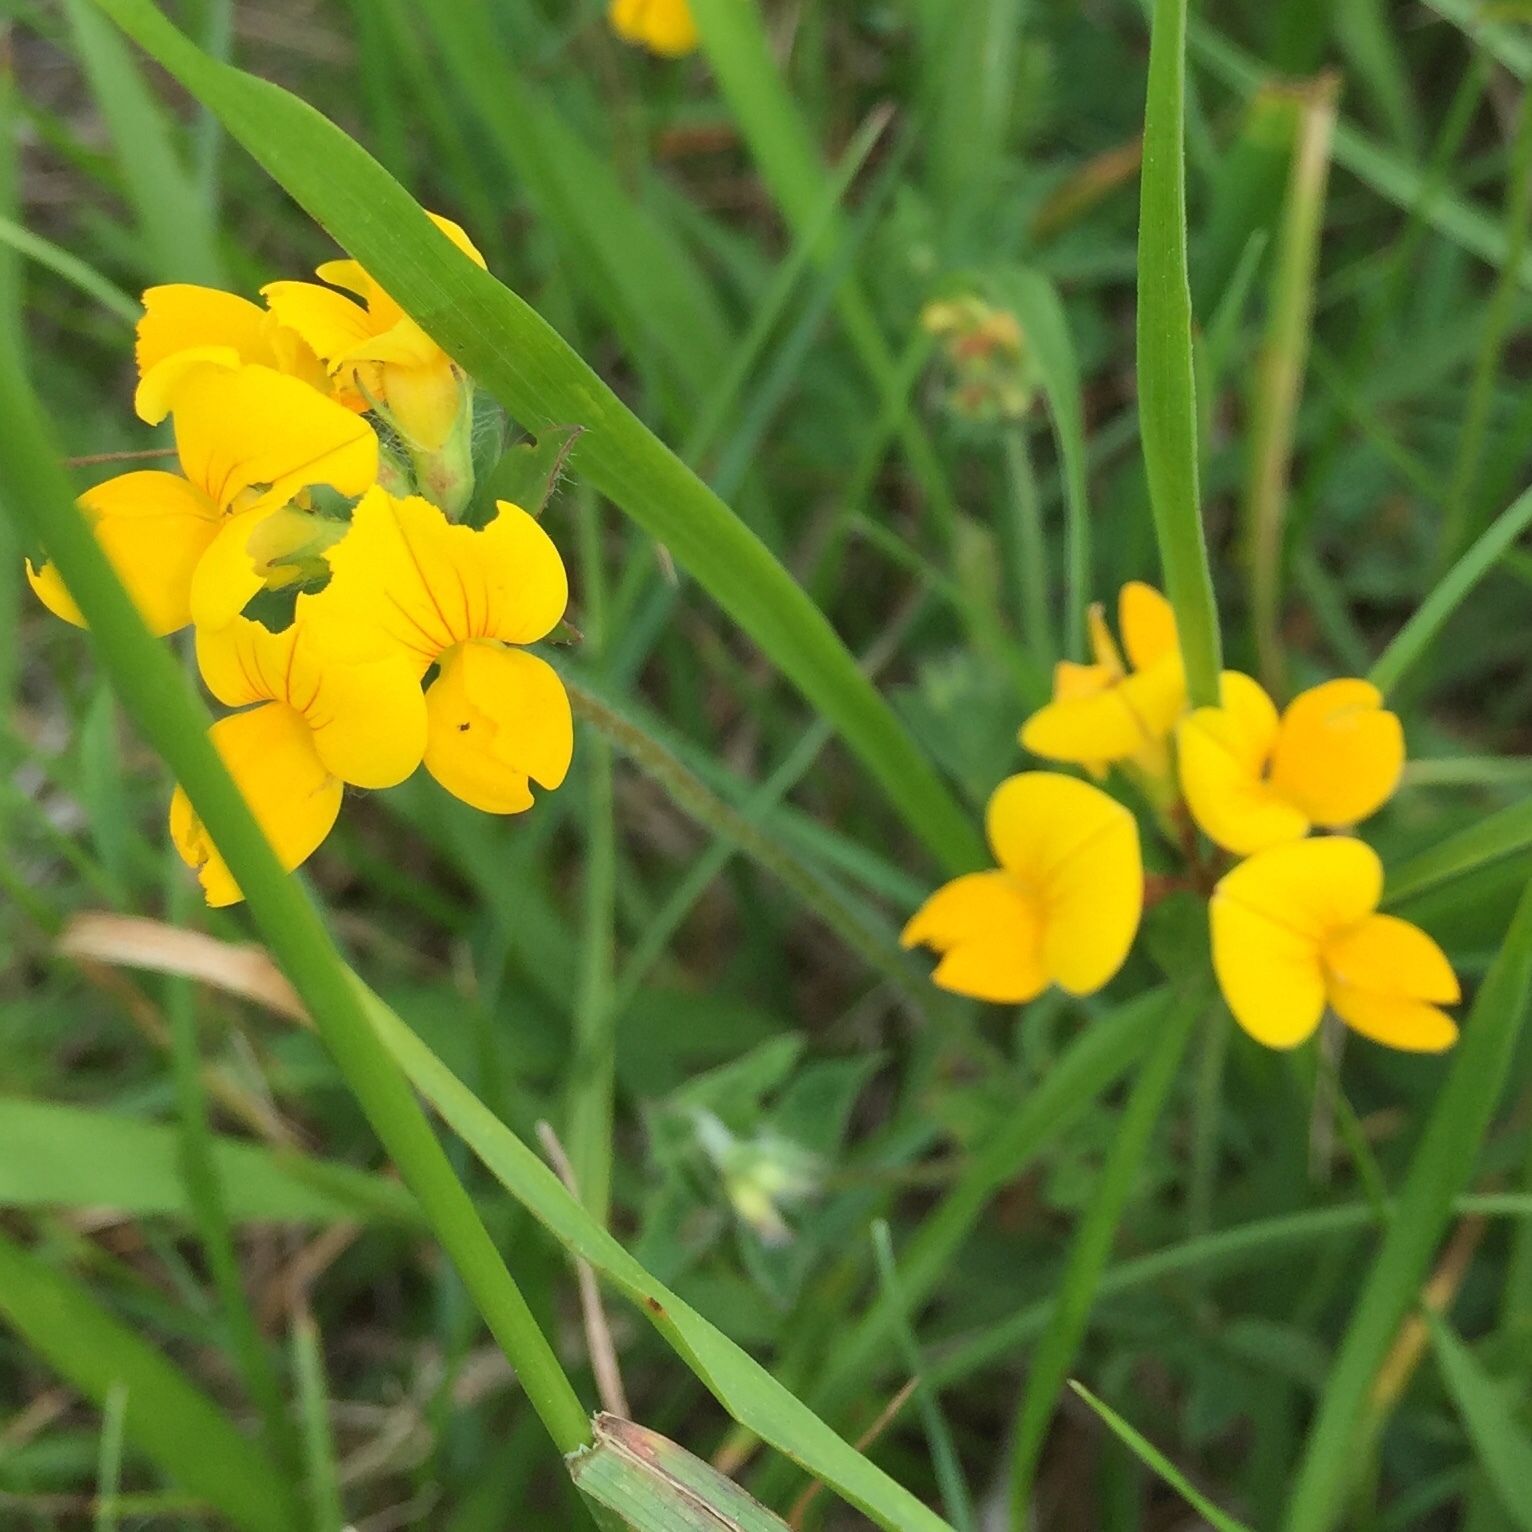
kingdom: Plantae
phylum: Tracheophyta
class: Magnoliopsida
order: Fabales
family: Fabaceae
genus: Lotus
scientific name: Lotus corniculatus
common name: Common bird's-foot-trefoil
